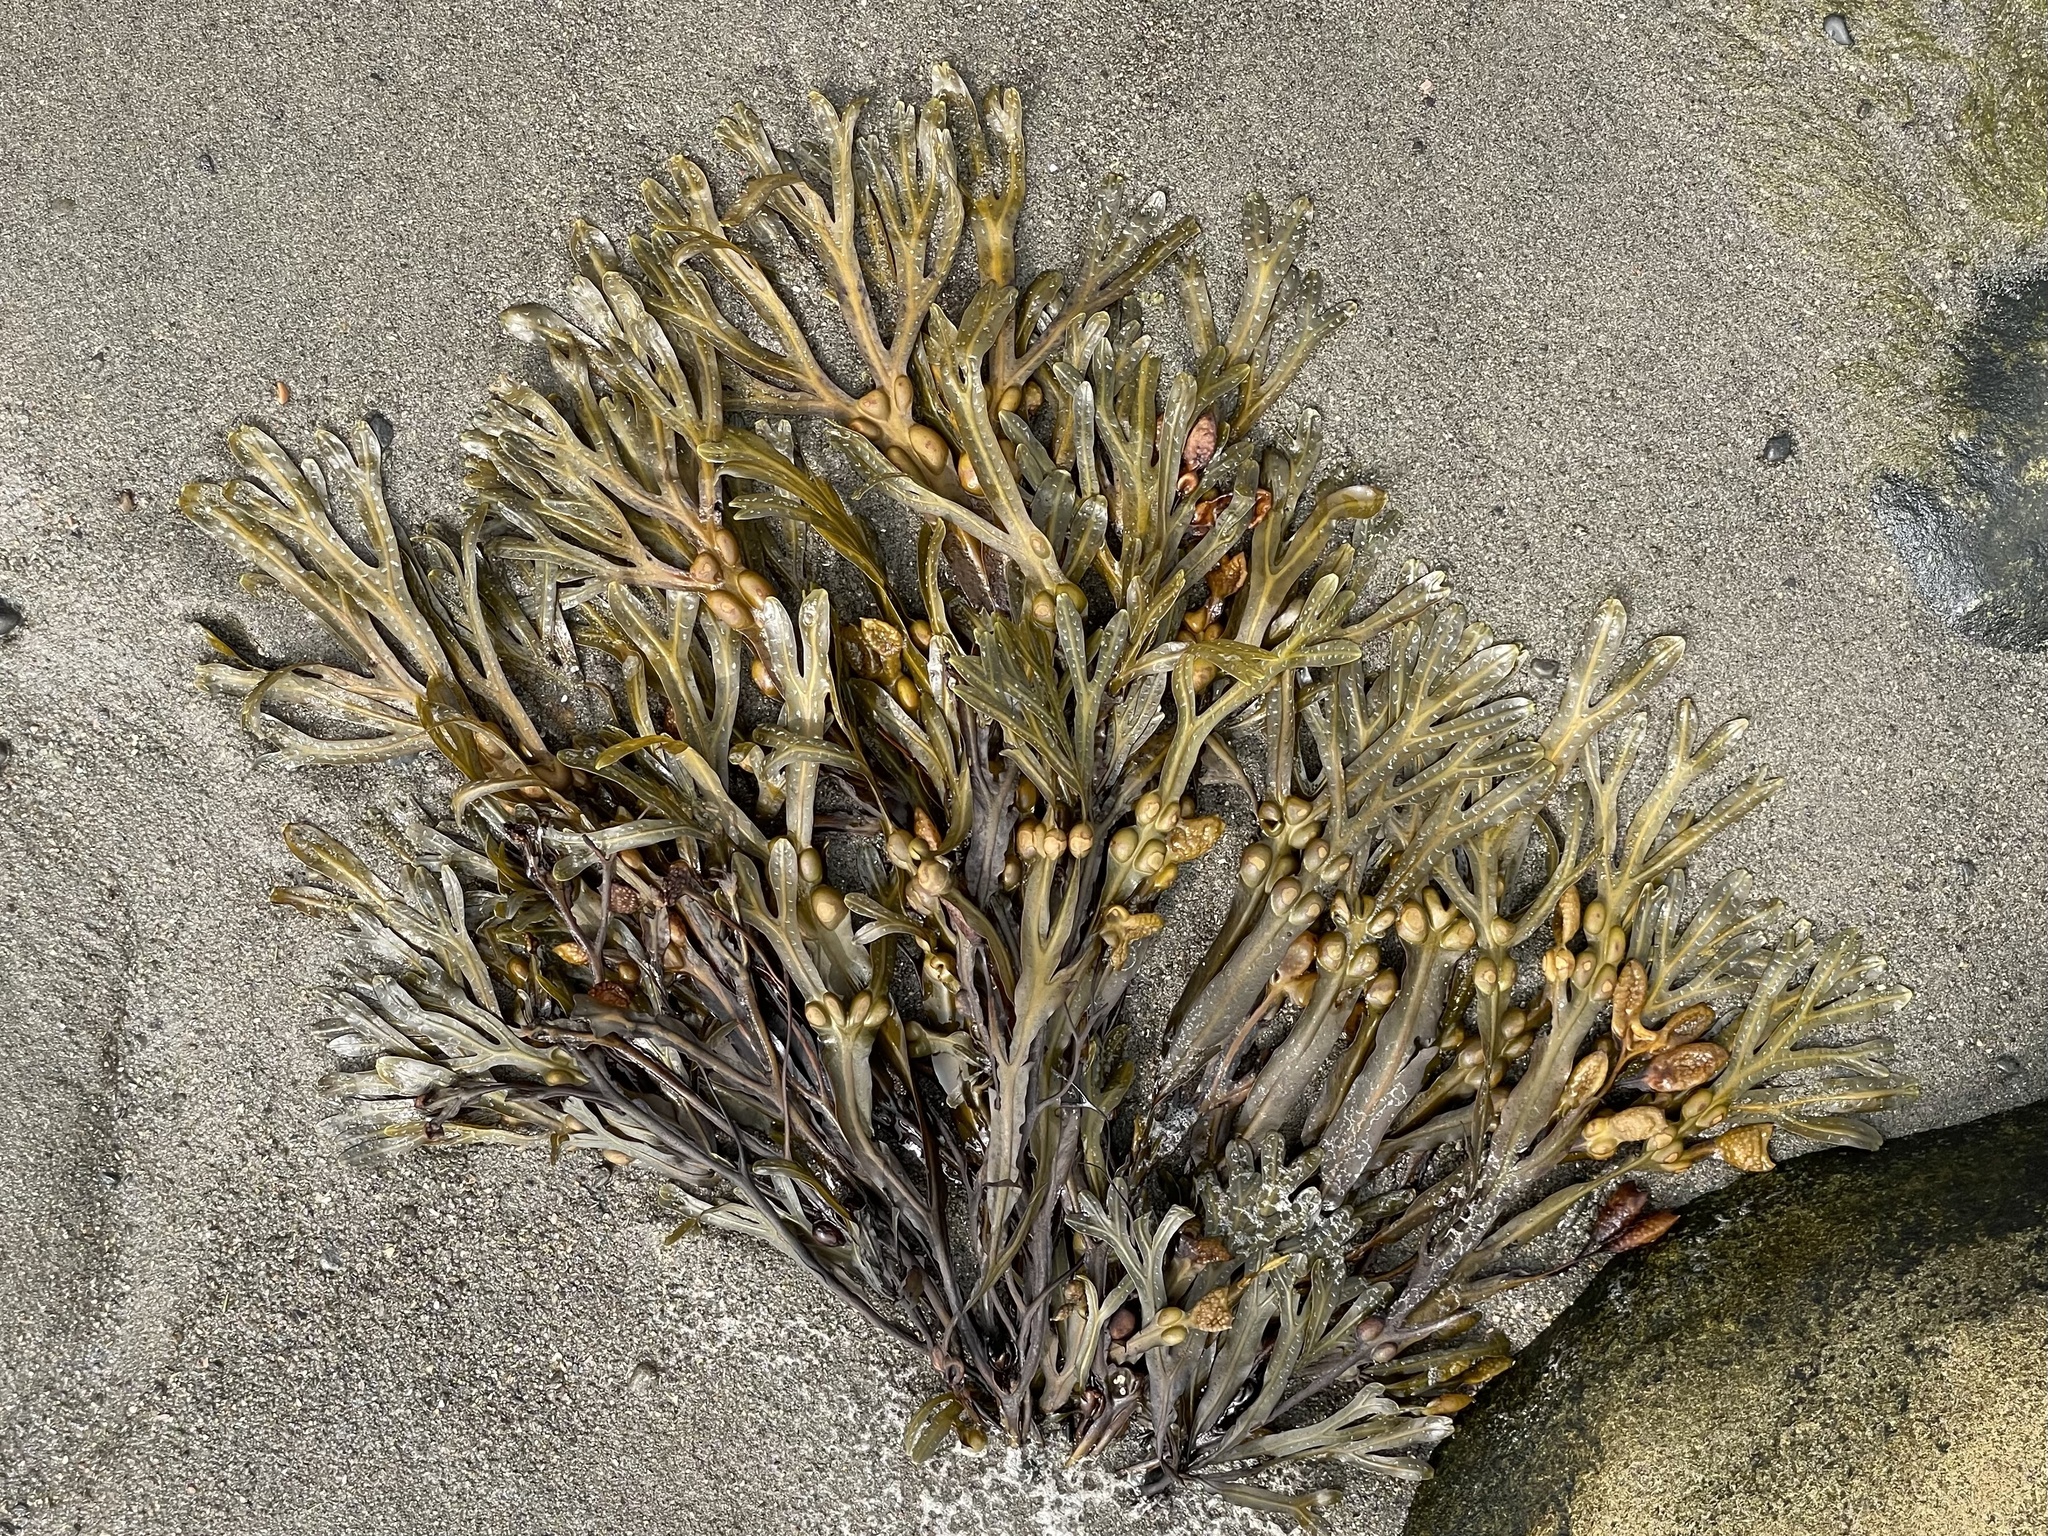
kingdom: Chromista
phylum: Ochrophyta
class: Phaeophyceae
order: Fucales
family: Fucaceae
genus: Fucus
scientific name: Fucus vesiculosus
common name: Bladder wrack
